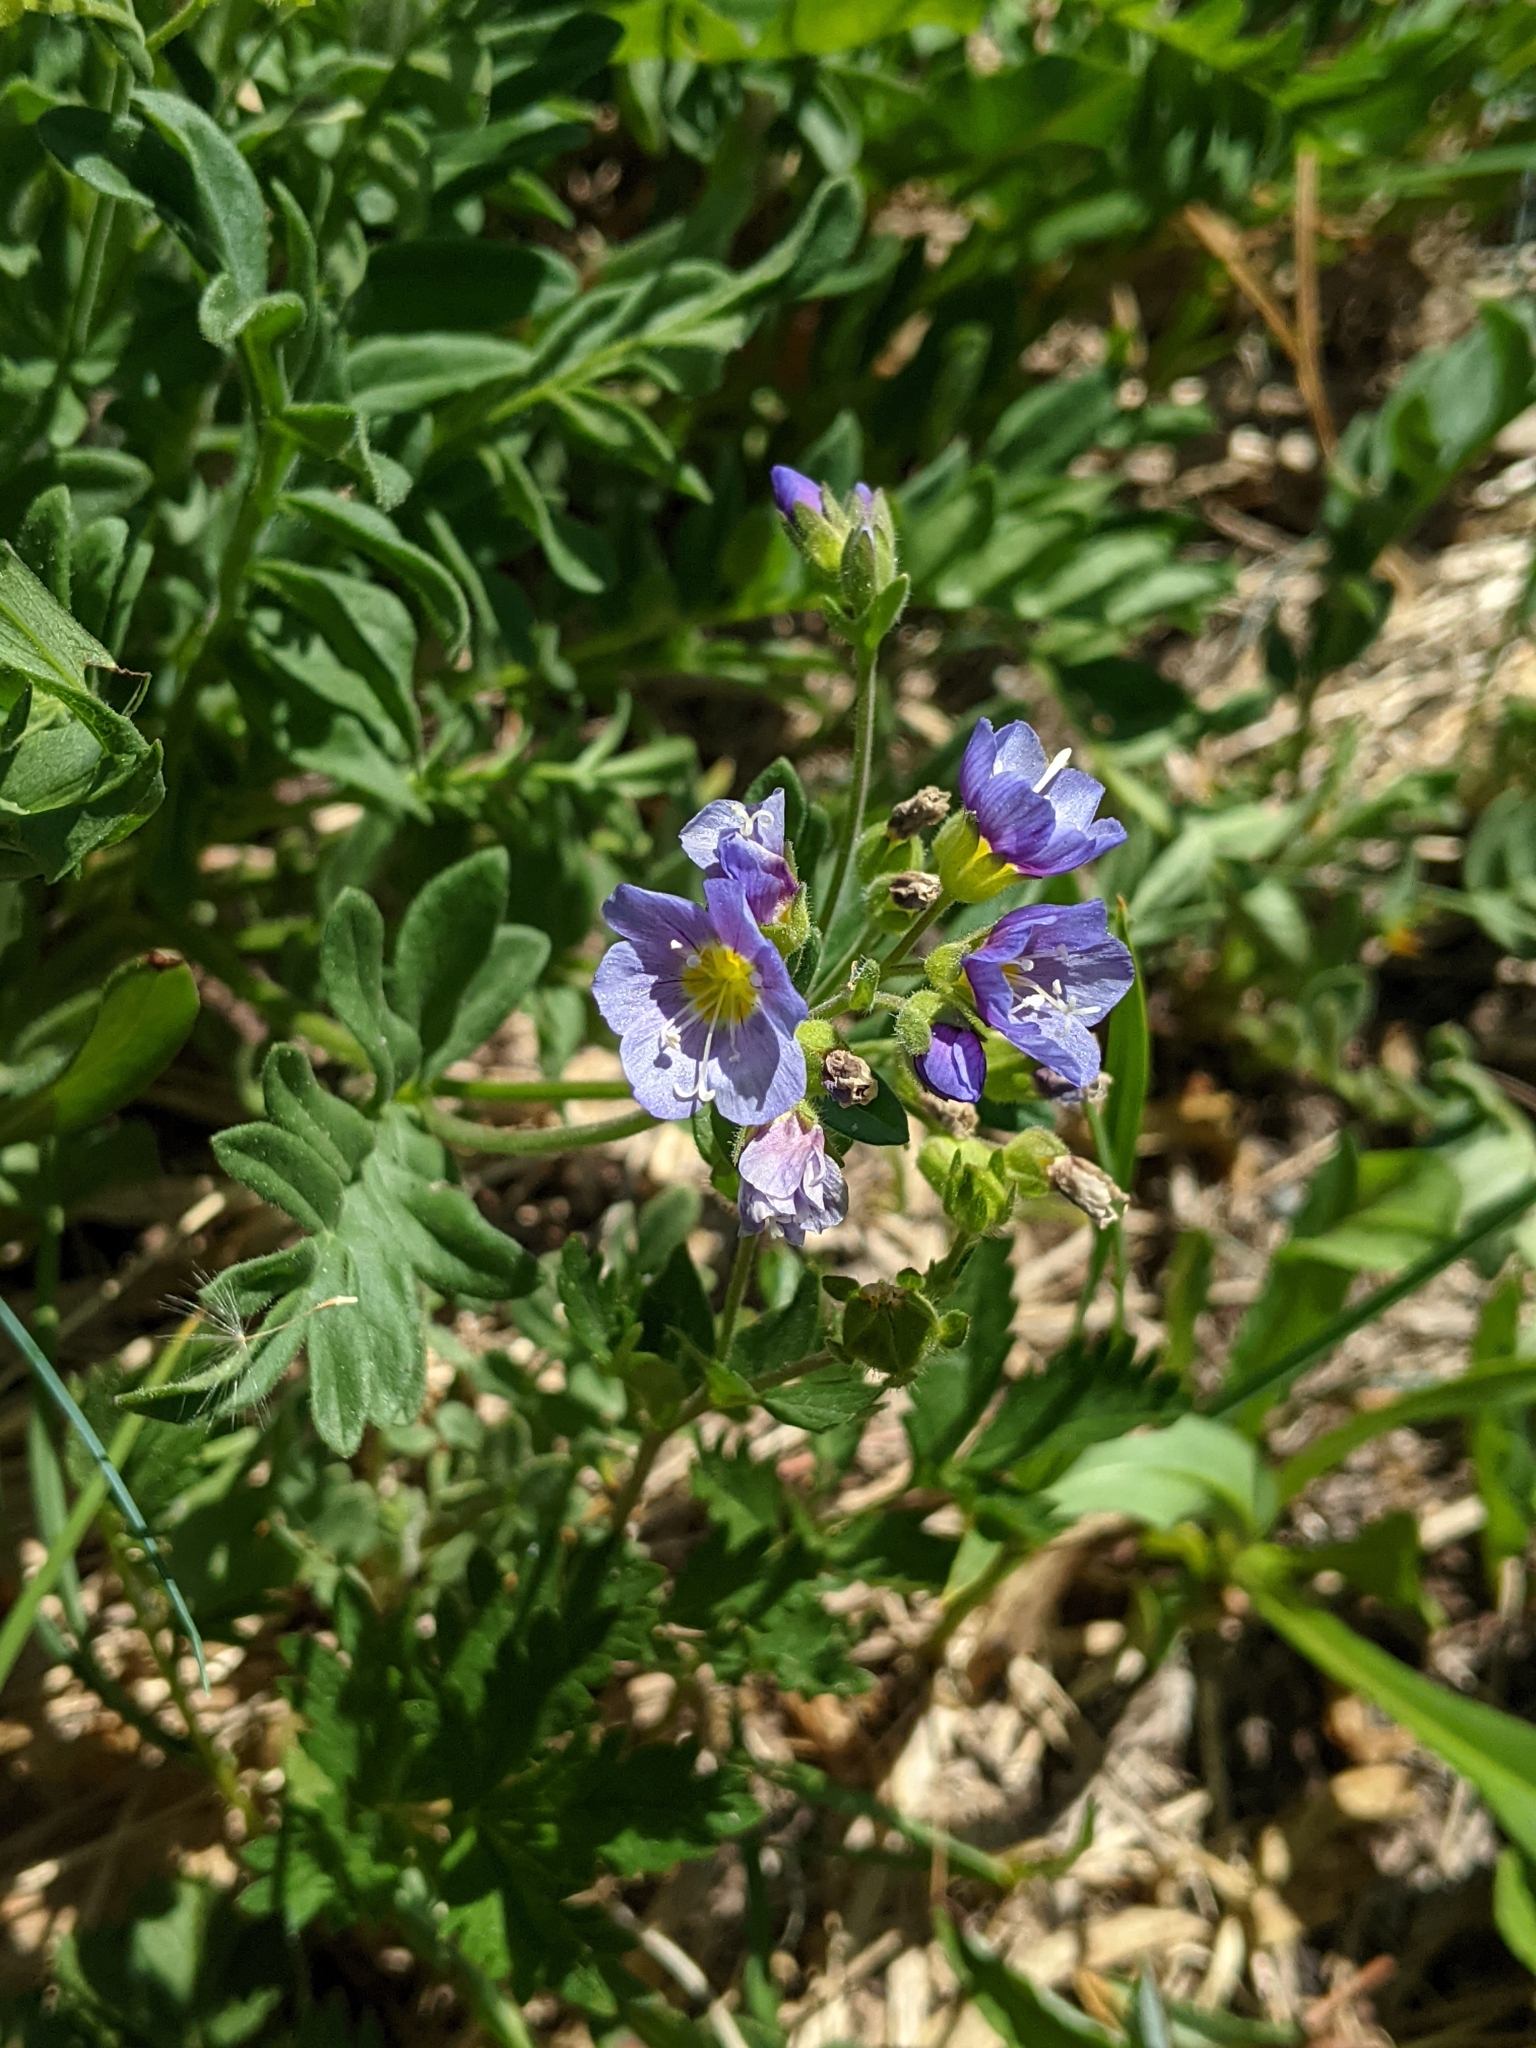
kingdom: Plantae
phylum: Tracheophyta
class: Magnoliopsida
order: Ericales
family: Polemoniaceae
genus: Polemonium
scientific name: Polemonium californicum
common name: California jacob's ladder
